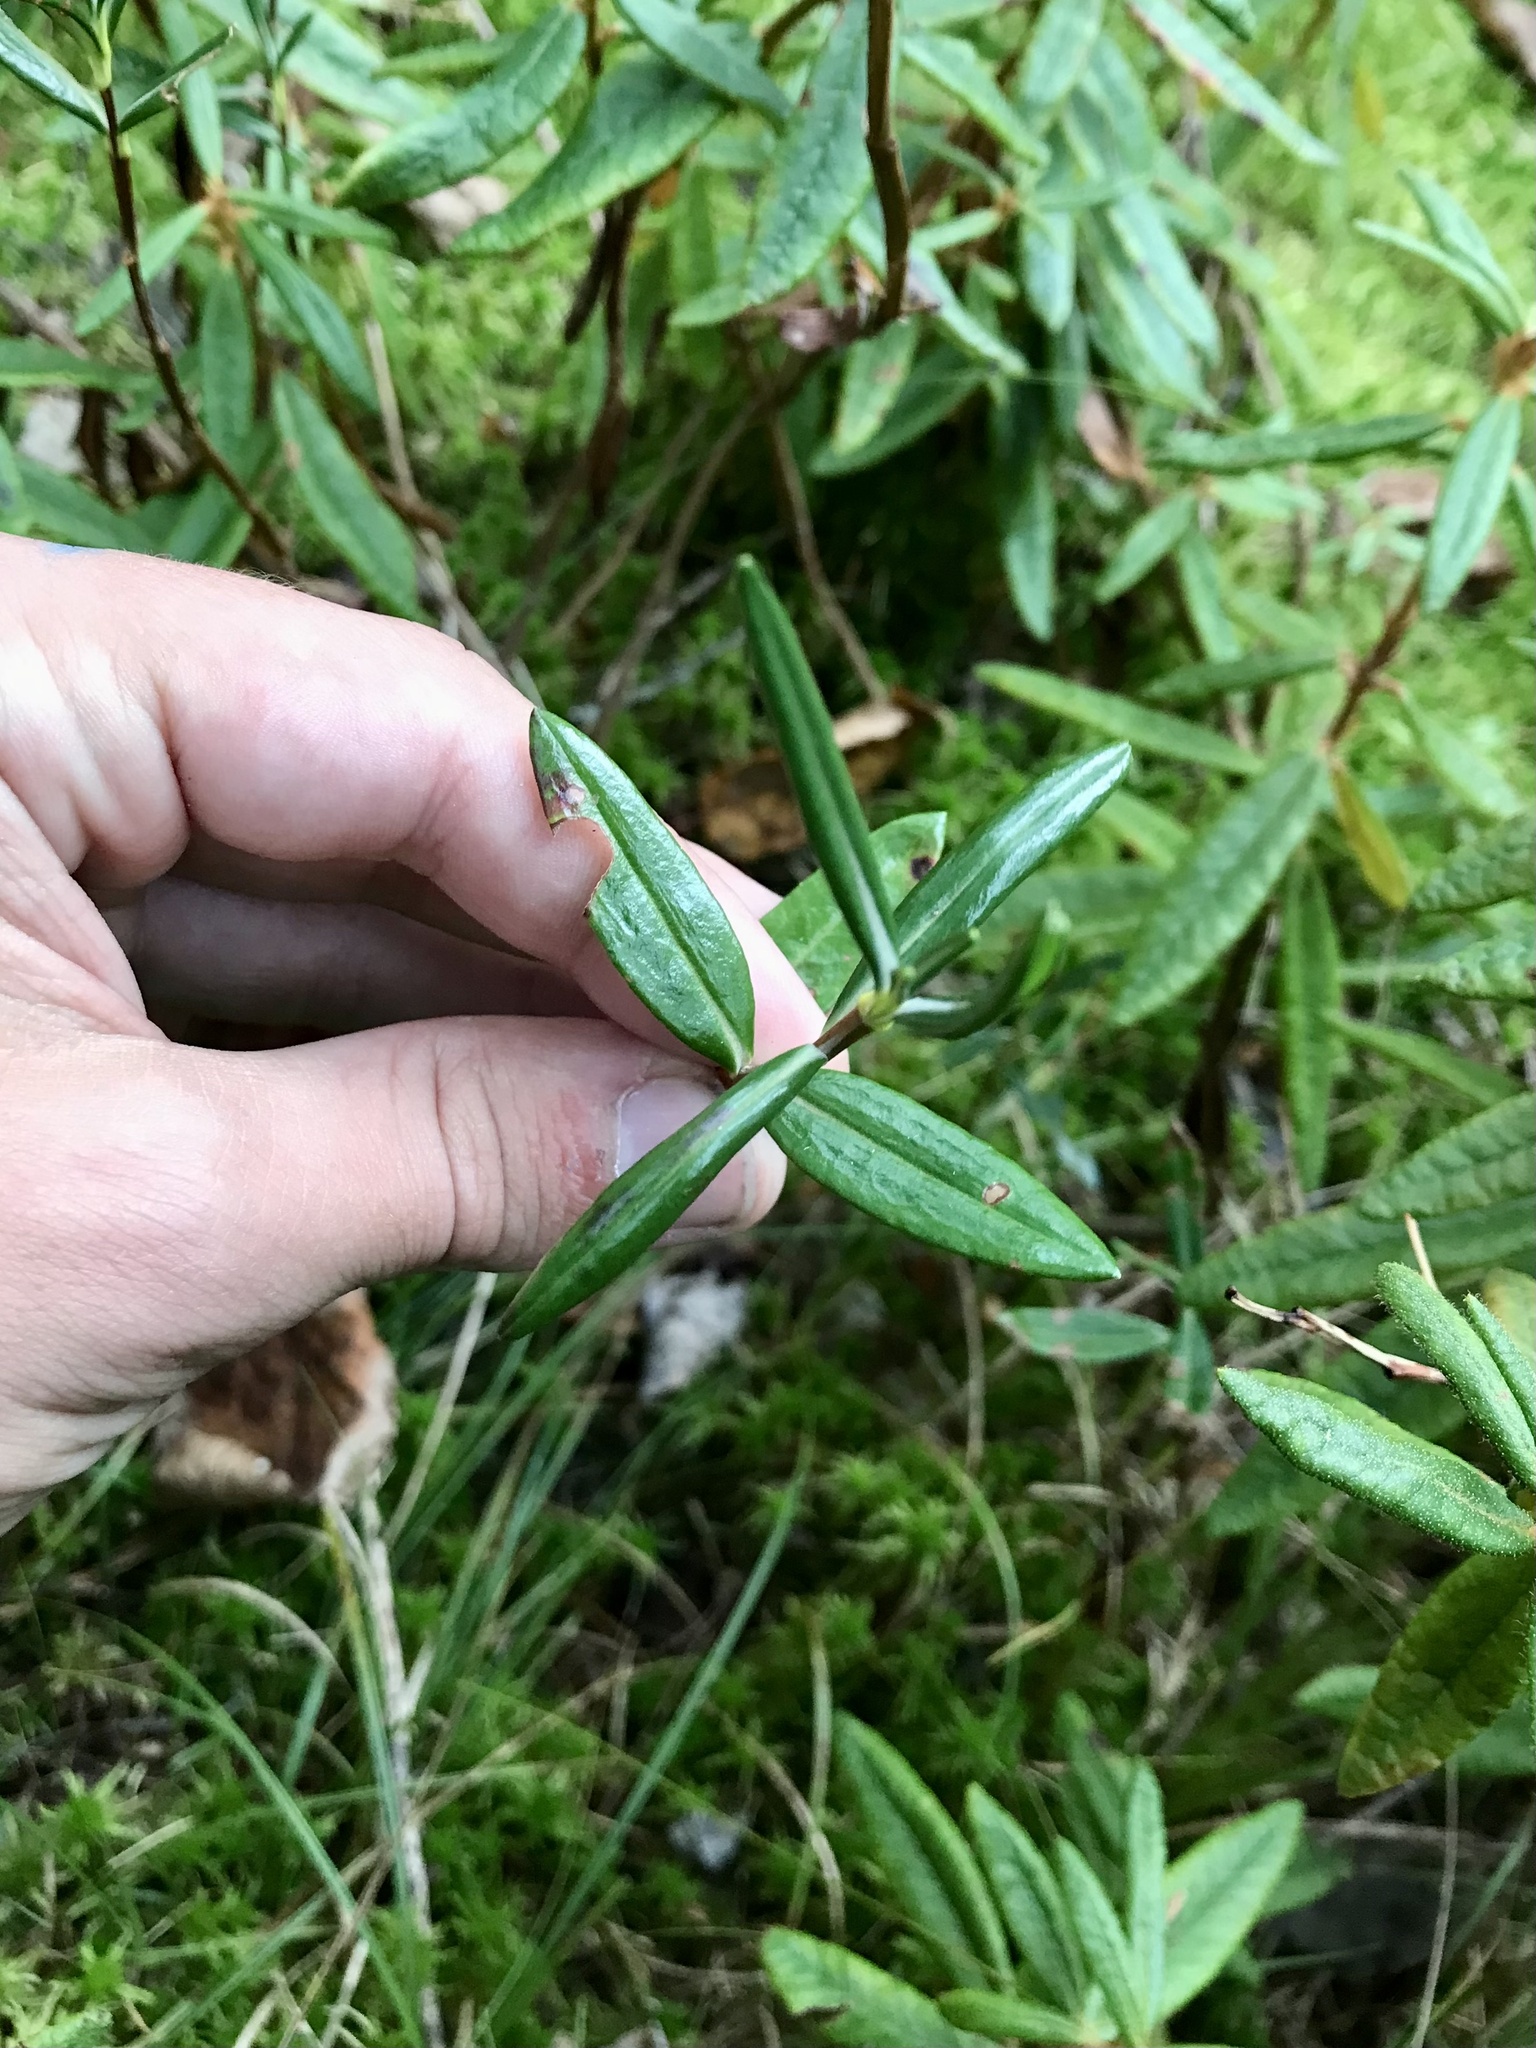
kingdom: Plantae
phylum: Tracheophyta
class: Magnoliopsida
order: Ericales
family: Ericaceae
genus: Kalmia
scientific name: Kalmia polifolia
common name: Bog-laurel
